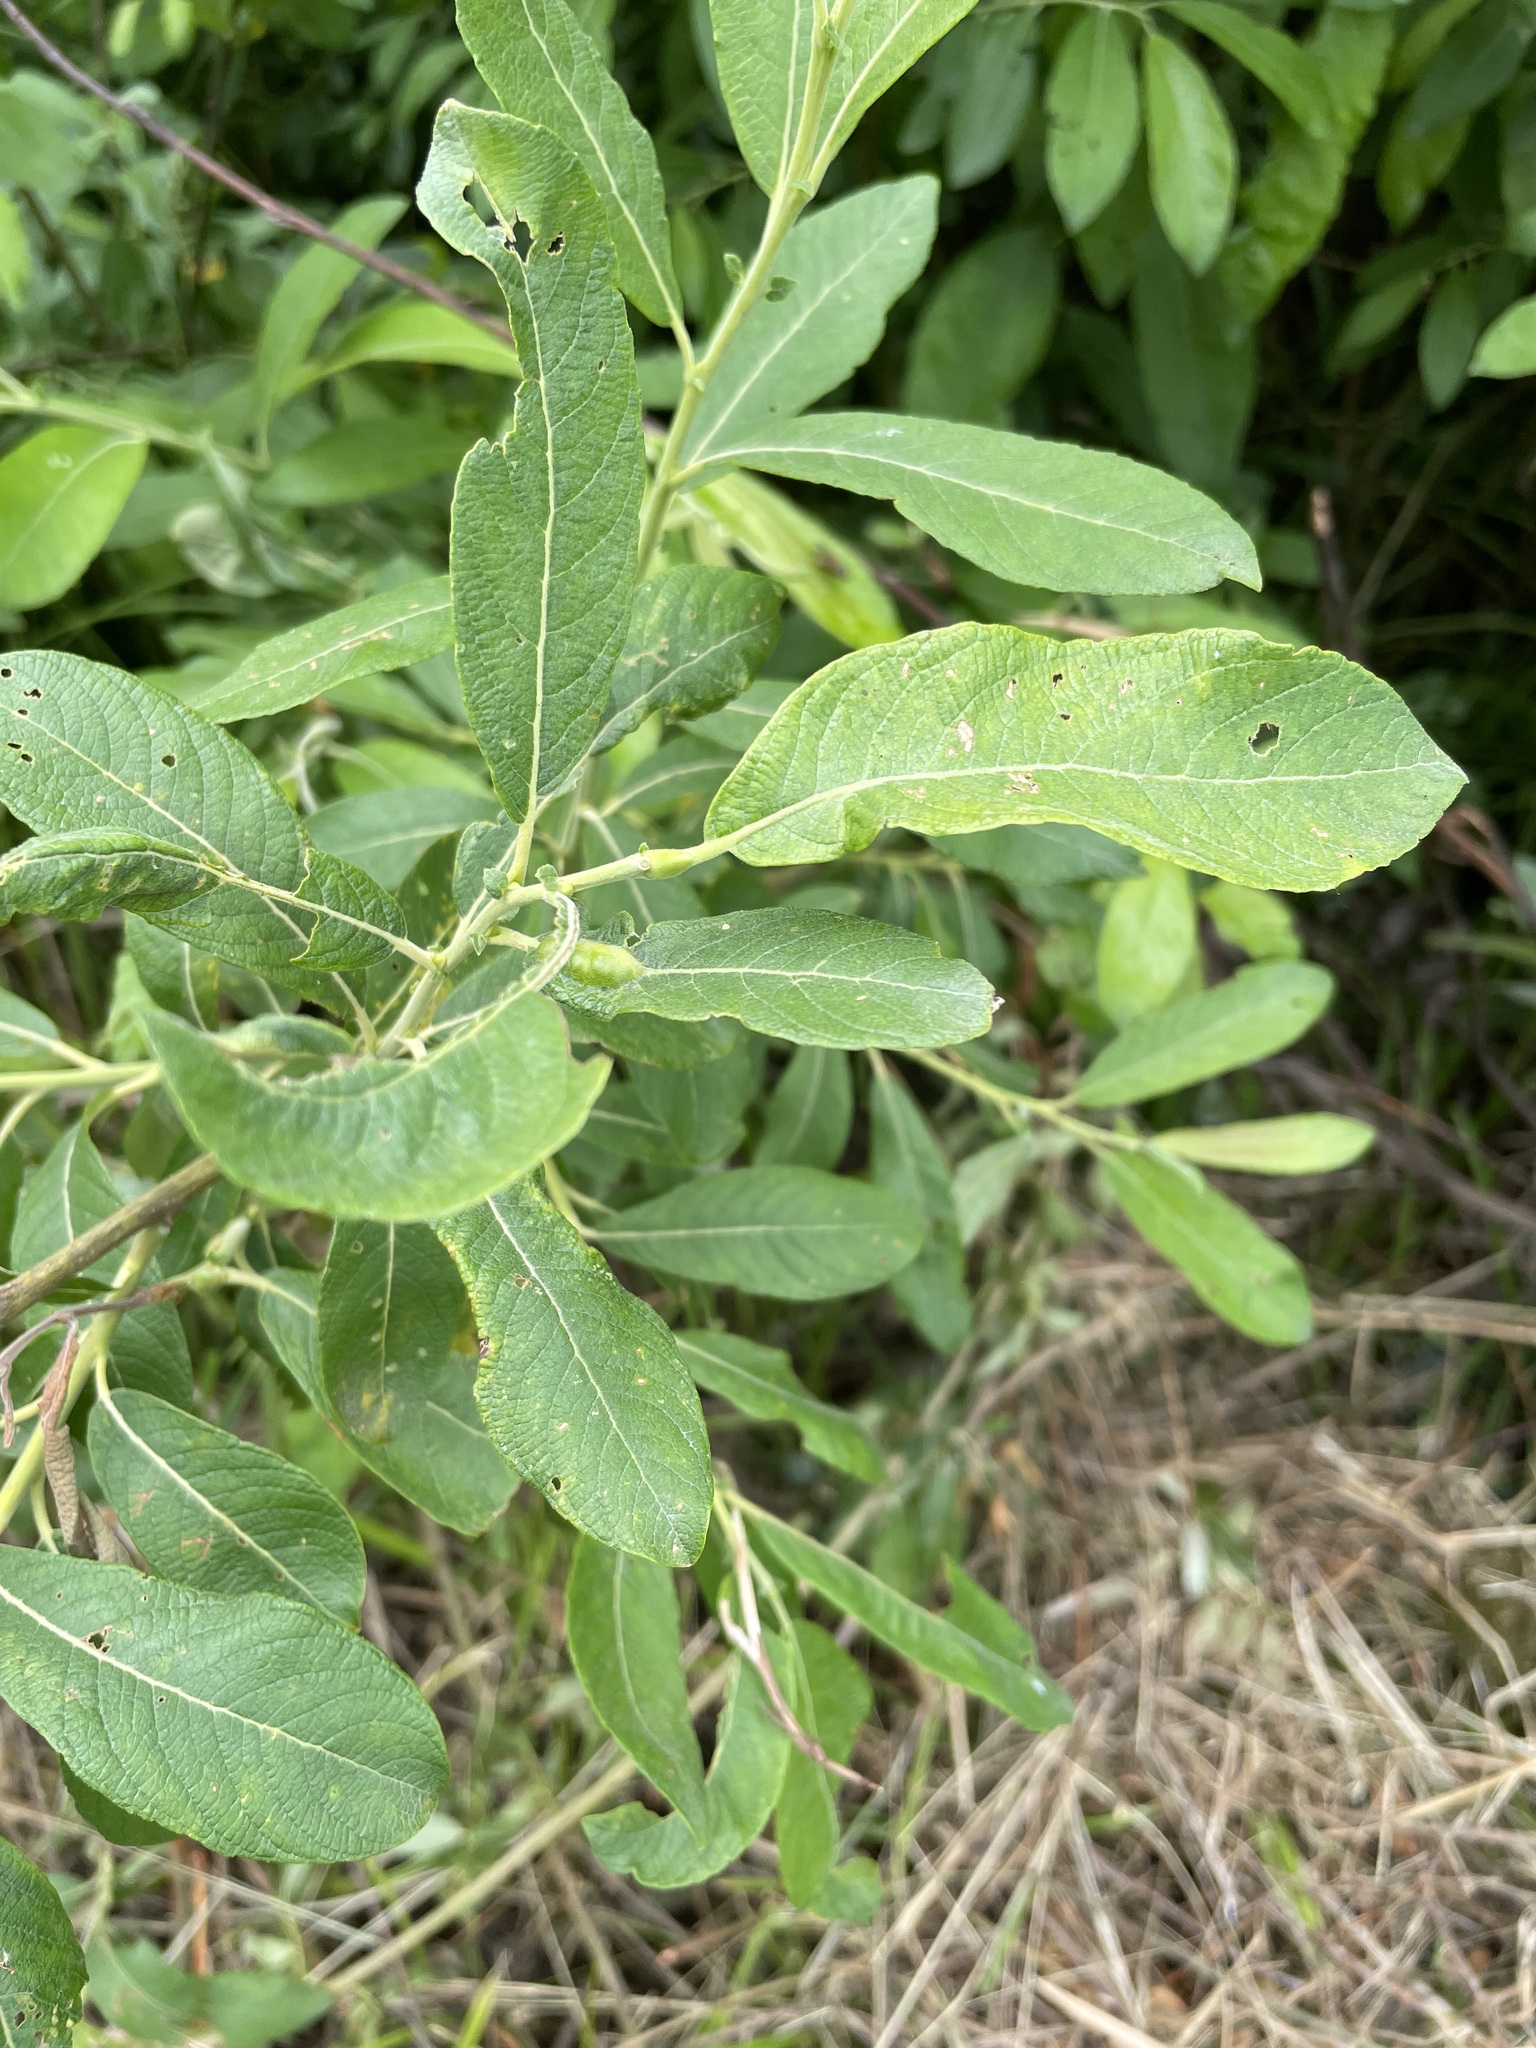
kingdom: Plantae
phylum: Tracheophyta
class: Magnoliopsida
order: Malpighiales
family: Salicaceae
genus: Salix
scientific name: Salix cinerea
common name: Common sallow
